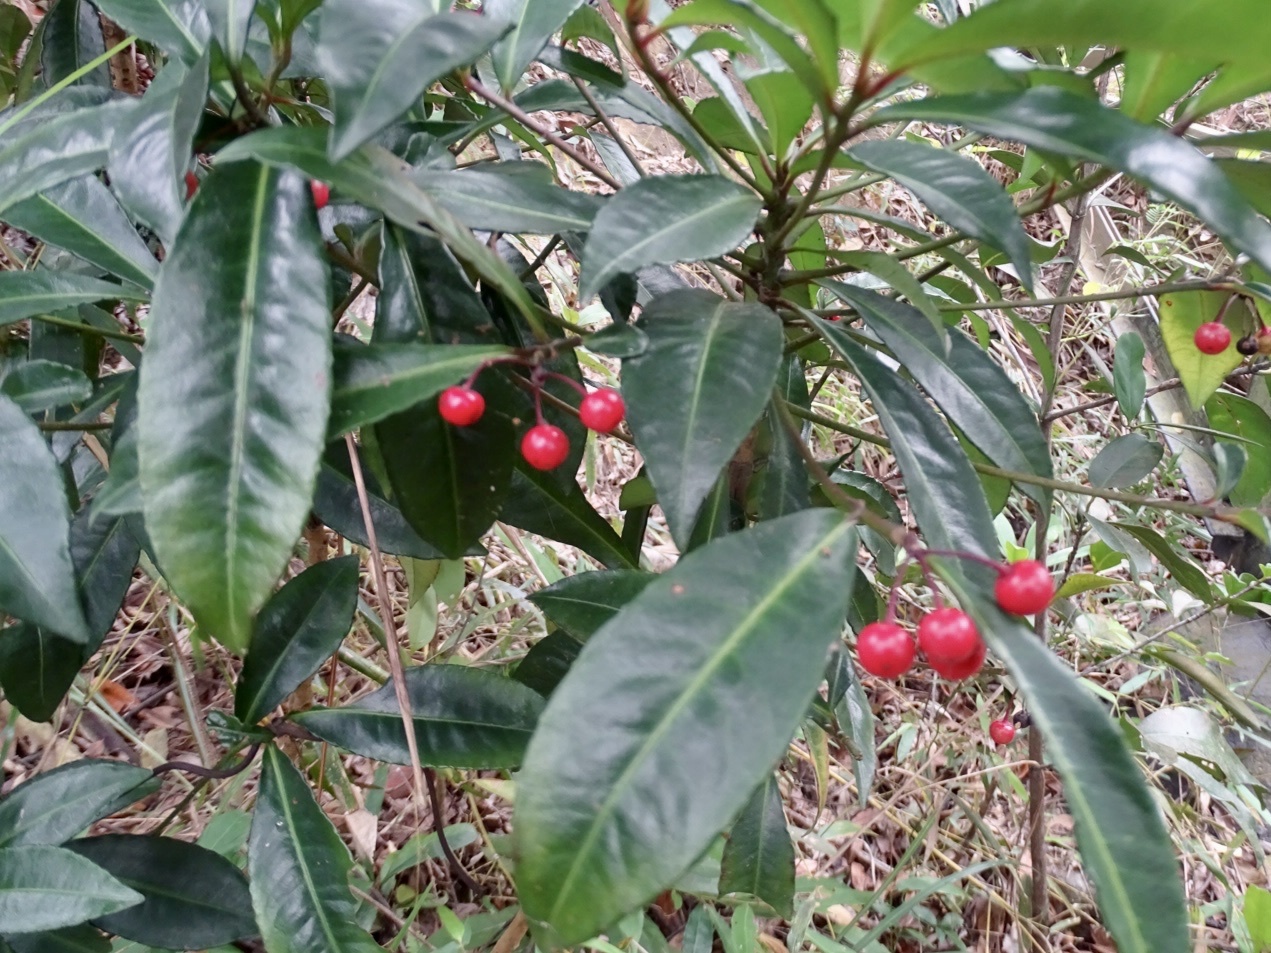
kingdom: Plantae
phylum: Tracheophyta
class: Magnoliopsida
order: Ericales
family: Primulaceae
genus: Ardisia
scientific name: Ardisia crenata
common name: Hen's eyes
